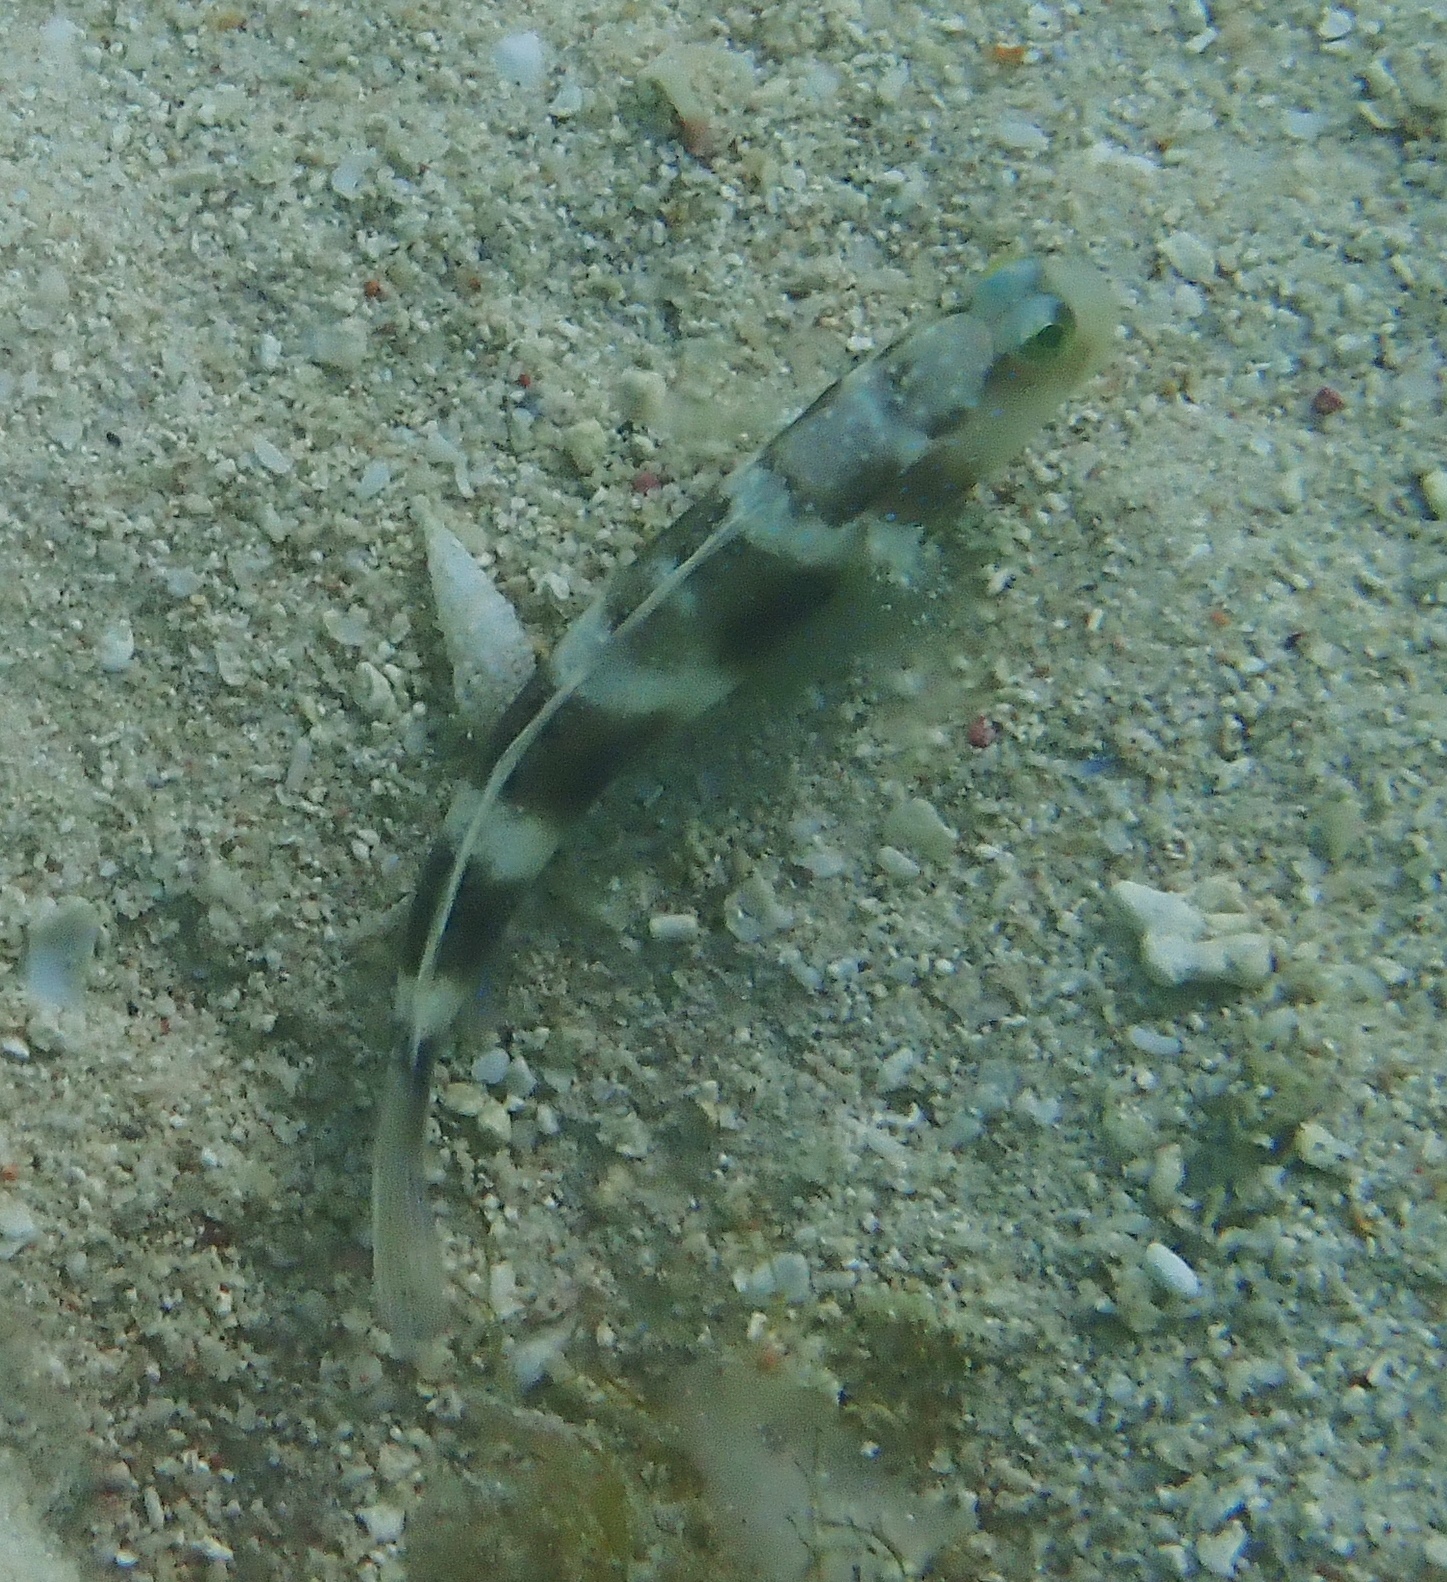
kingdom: Animalia
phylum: Chordata
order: Perciformes
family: Gobiidae
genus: Cryptocentrus
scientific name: Cryptocentrus fasciatus
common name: Barred prawn-goby
